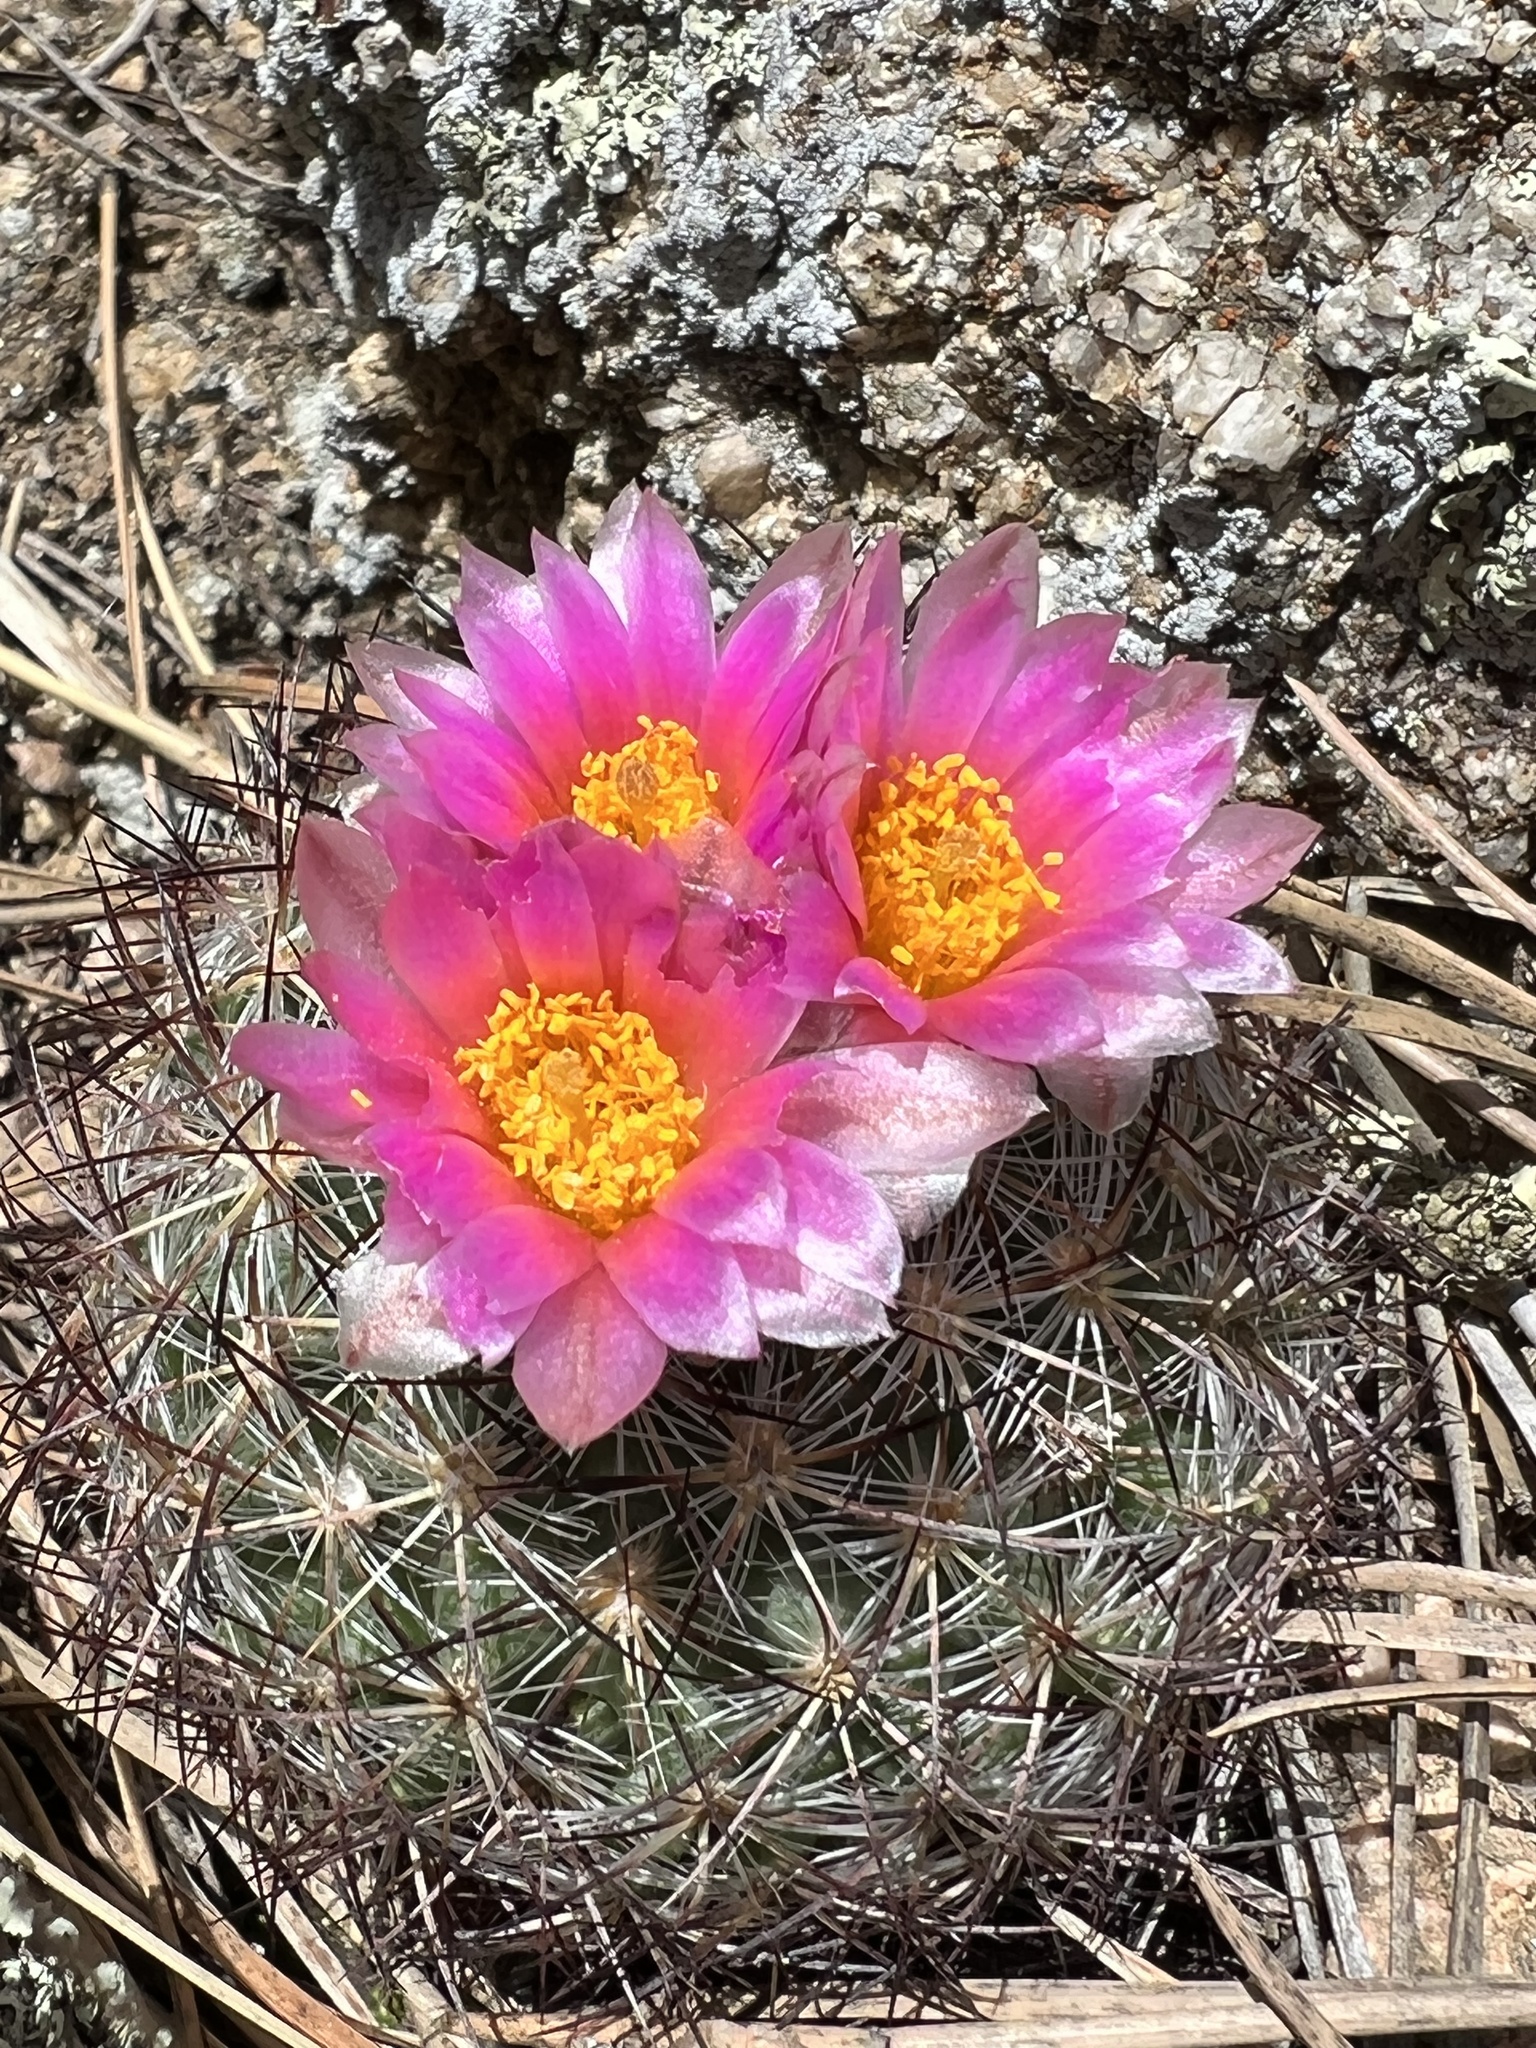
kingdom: Plantae
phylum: Tracheophyta
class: Magnoliopsida
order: Caryophyllales
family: Cactaceae
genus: Pediocactus
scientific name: Pediocactus simpsonii
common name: Simpson's hedgehog cactus
